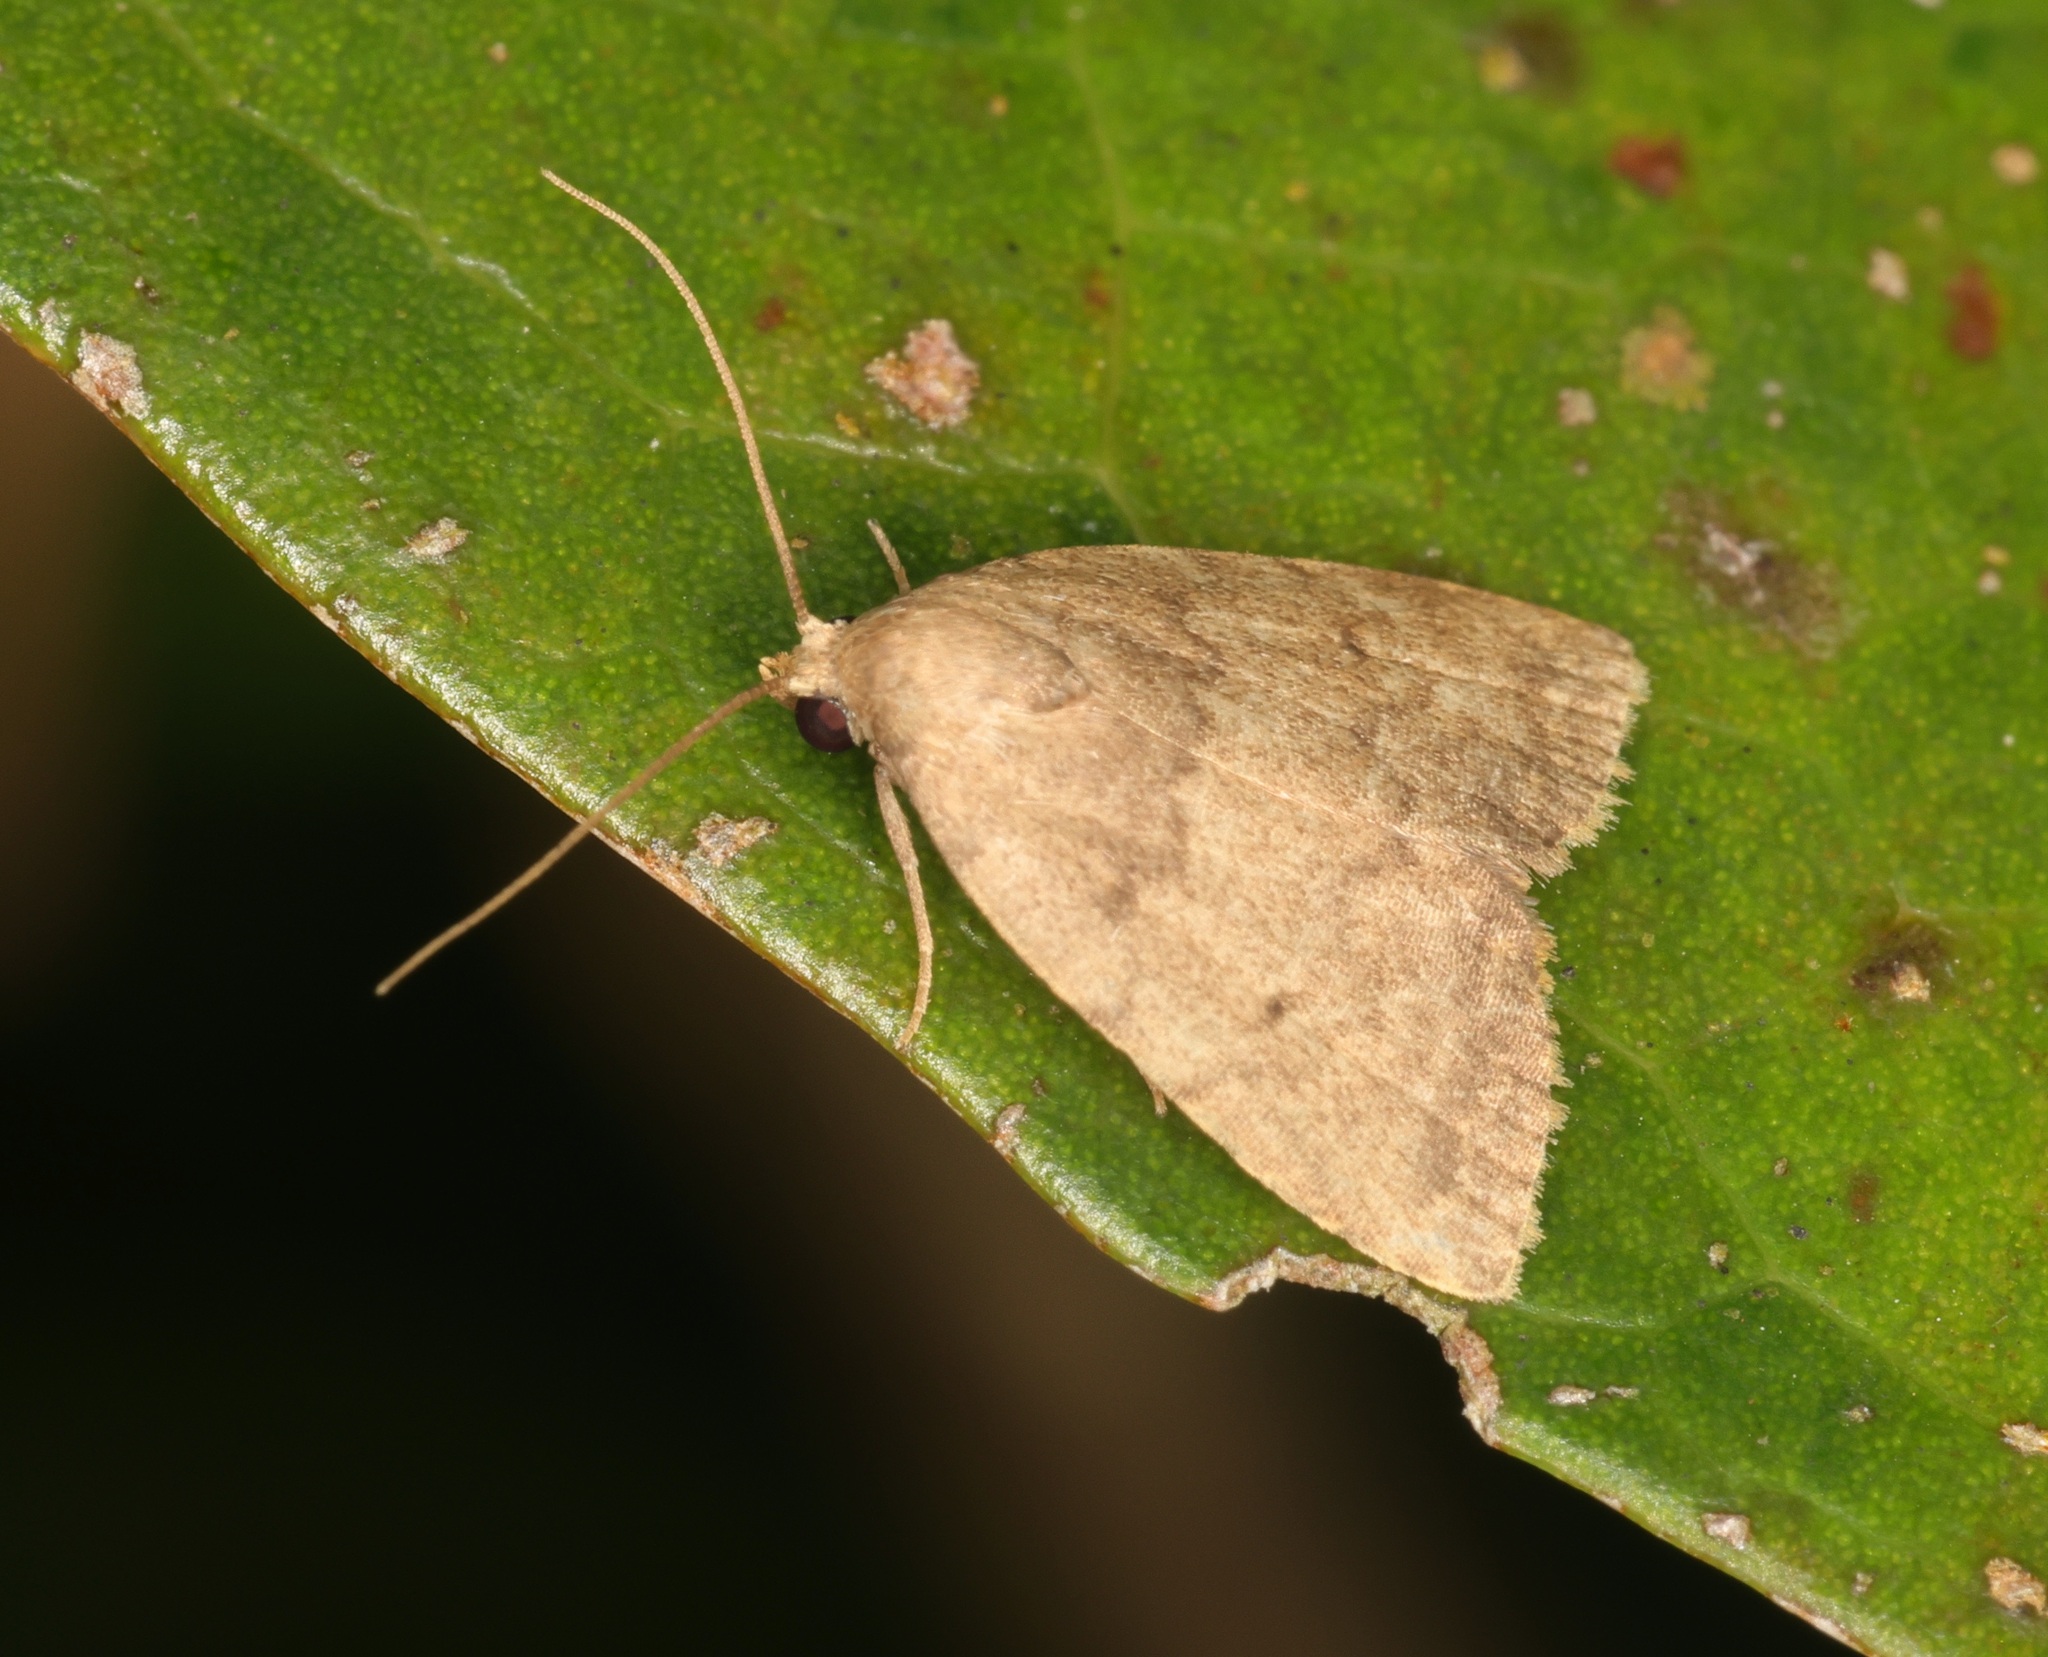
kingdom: Animalia
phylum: Arthropoda
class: Insecta
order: Lepidoptera
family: Erebidae
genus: Anachrostis
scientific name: Anachrostis
